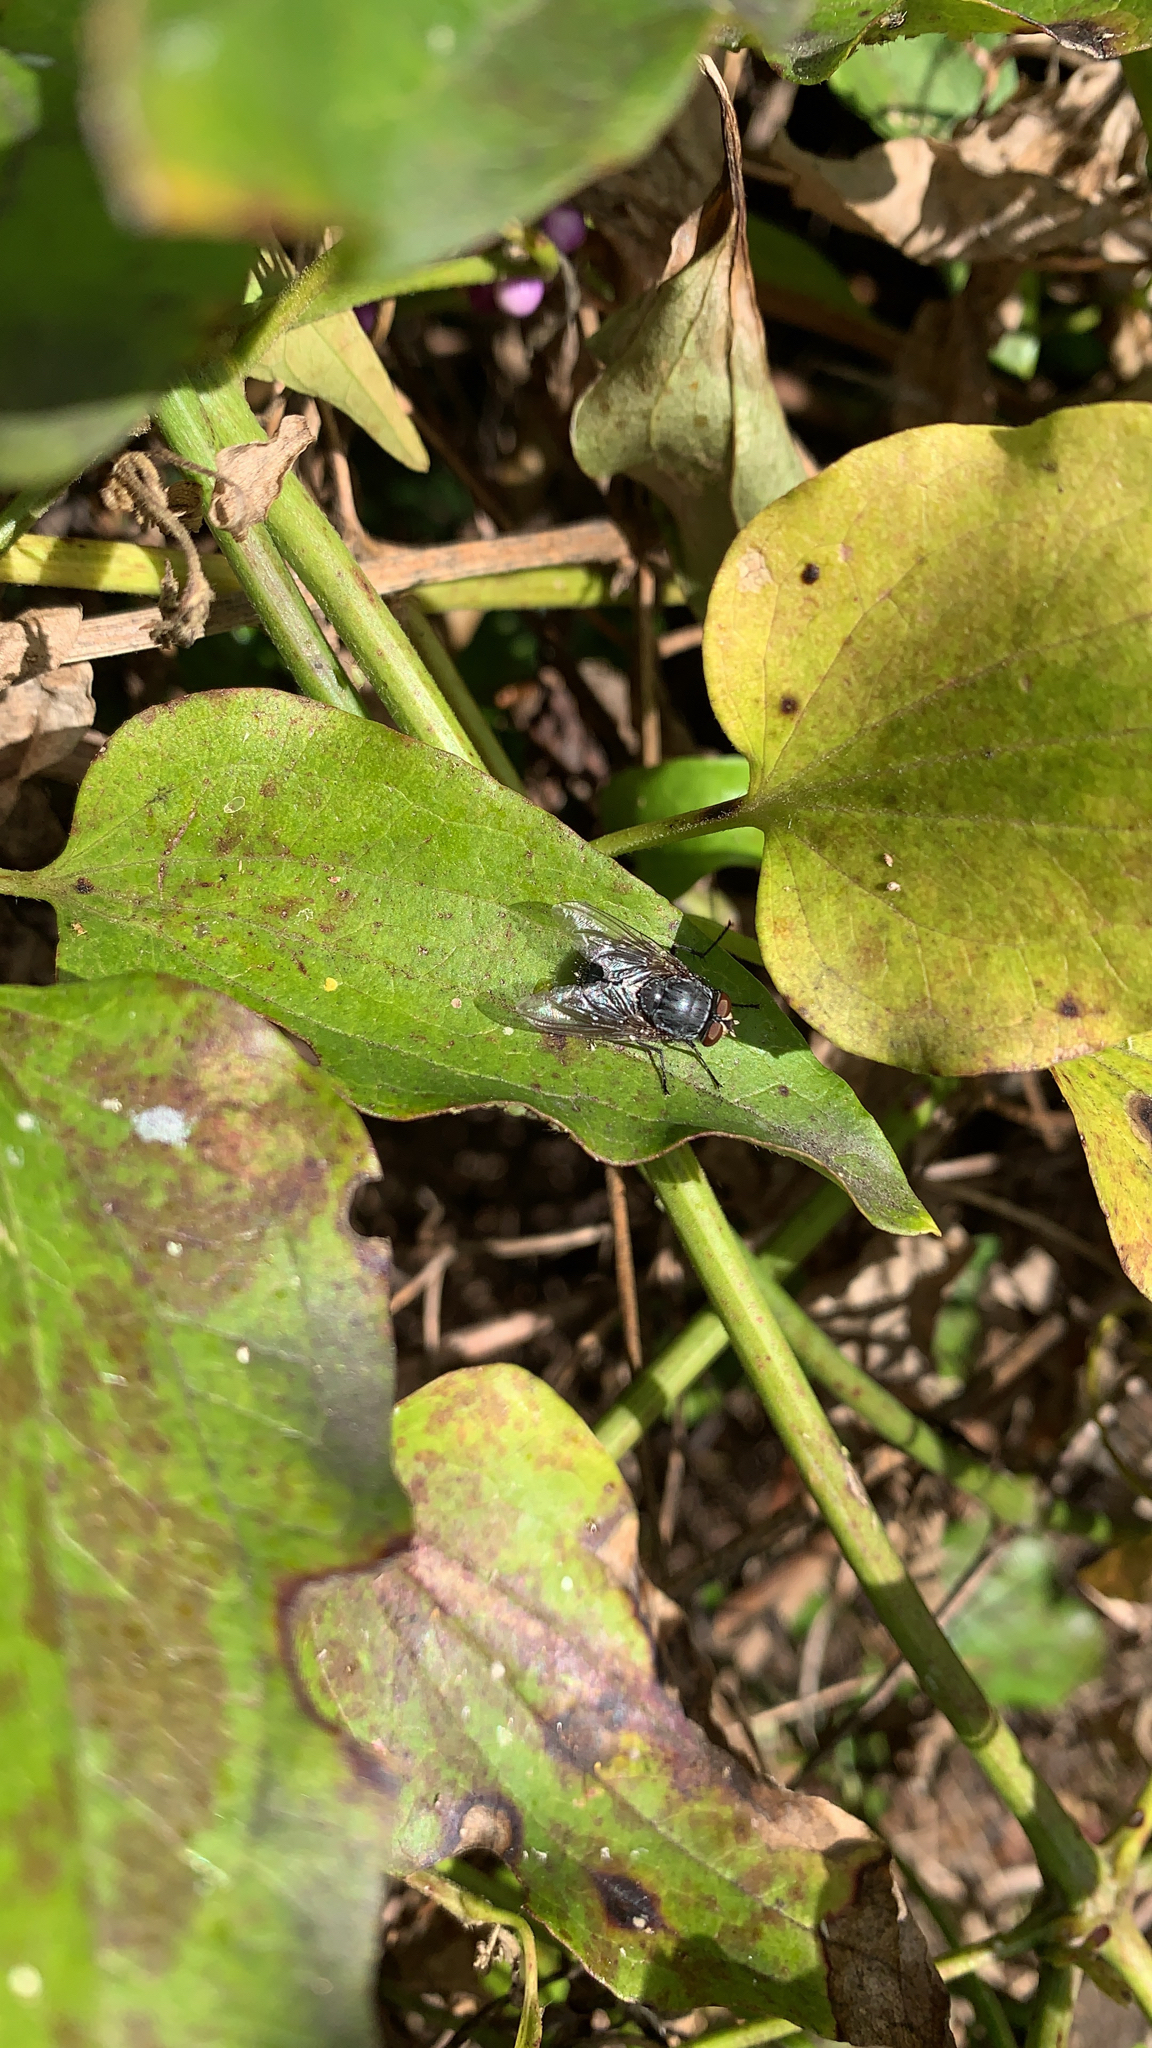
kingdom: Animalia
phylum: Arthropoda
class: Insecta
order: Diptera
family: Calliphoridae
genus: Calliphora
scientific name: Calliphora vicina
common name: Common blow flie
